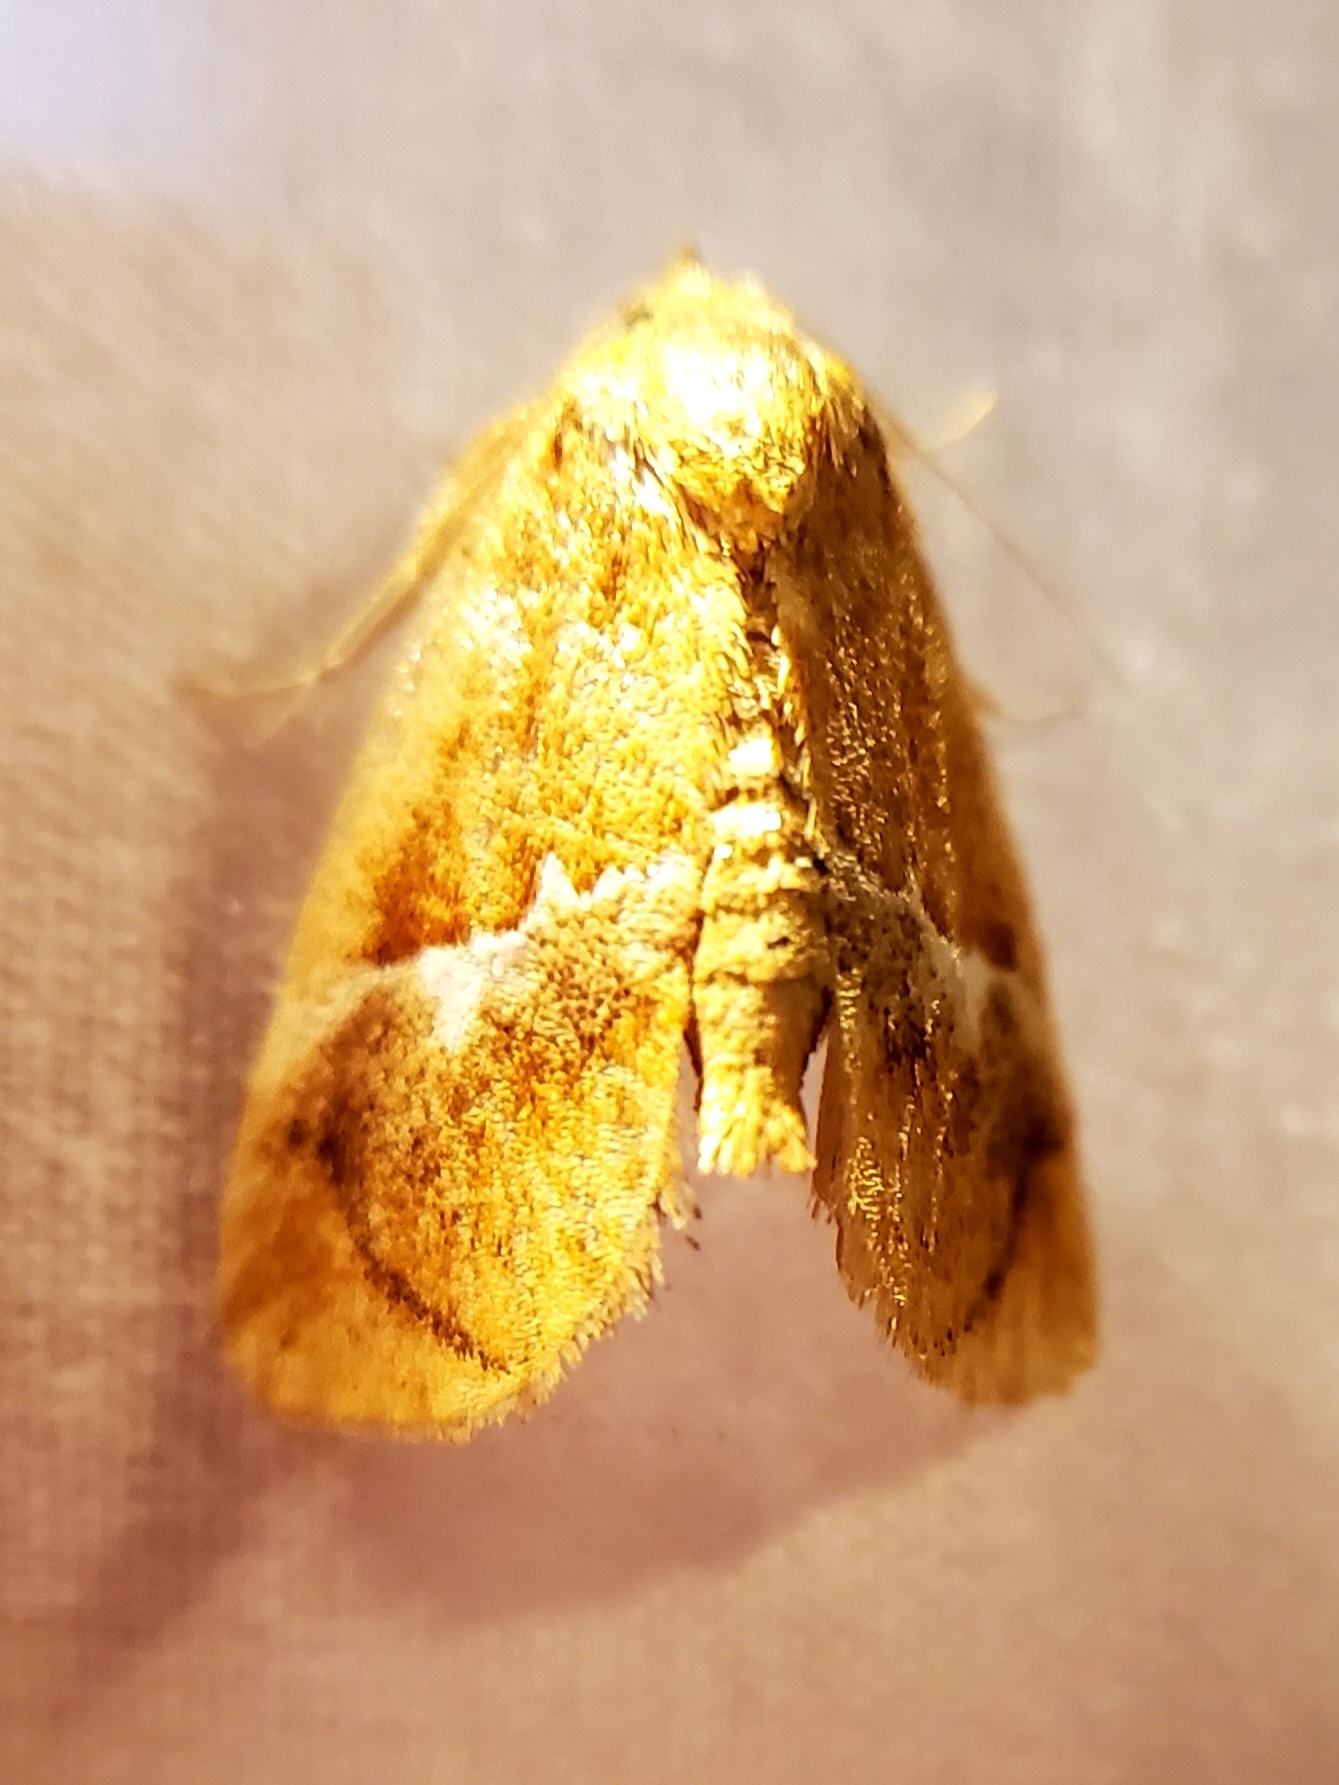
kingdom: Animalia
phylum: Arthropoda
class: Insecta
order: Lepidoptera
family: Limacodidae
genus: Lithacodes
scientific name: Lithacodes fasciola
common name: Yellow-shouldered slug moth
